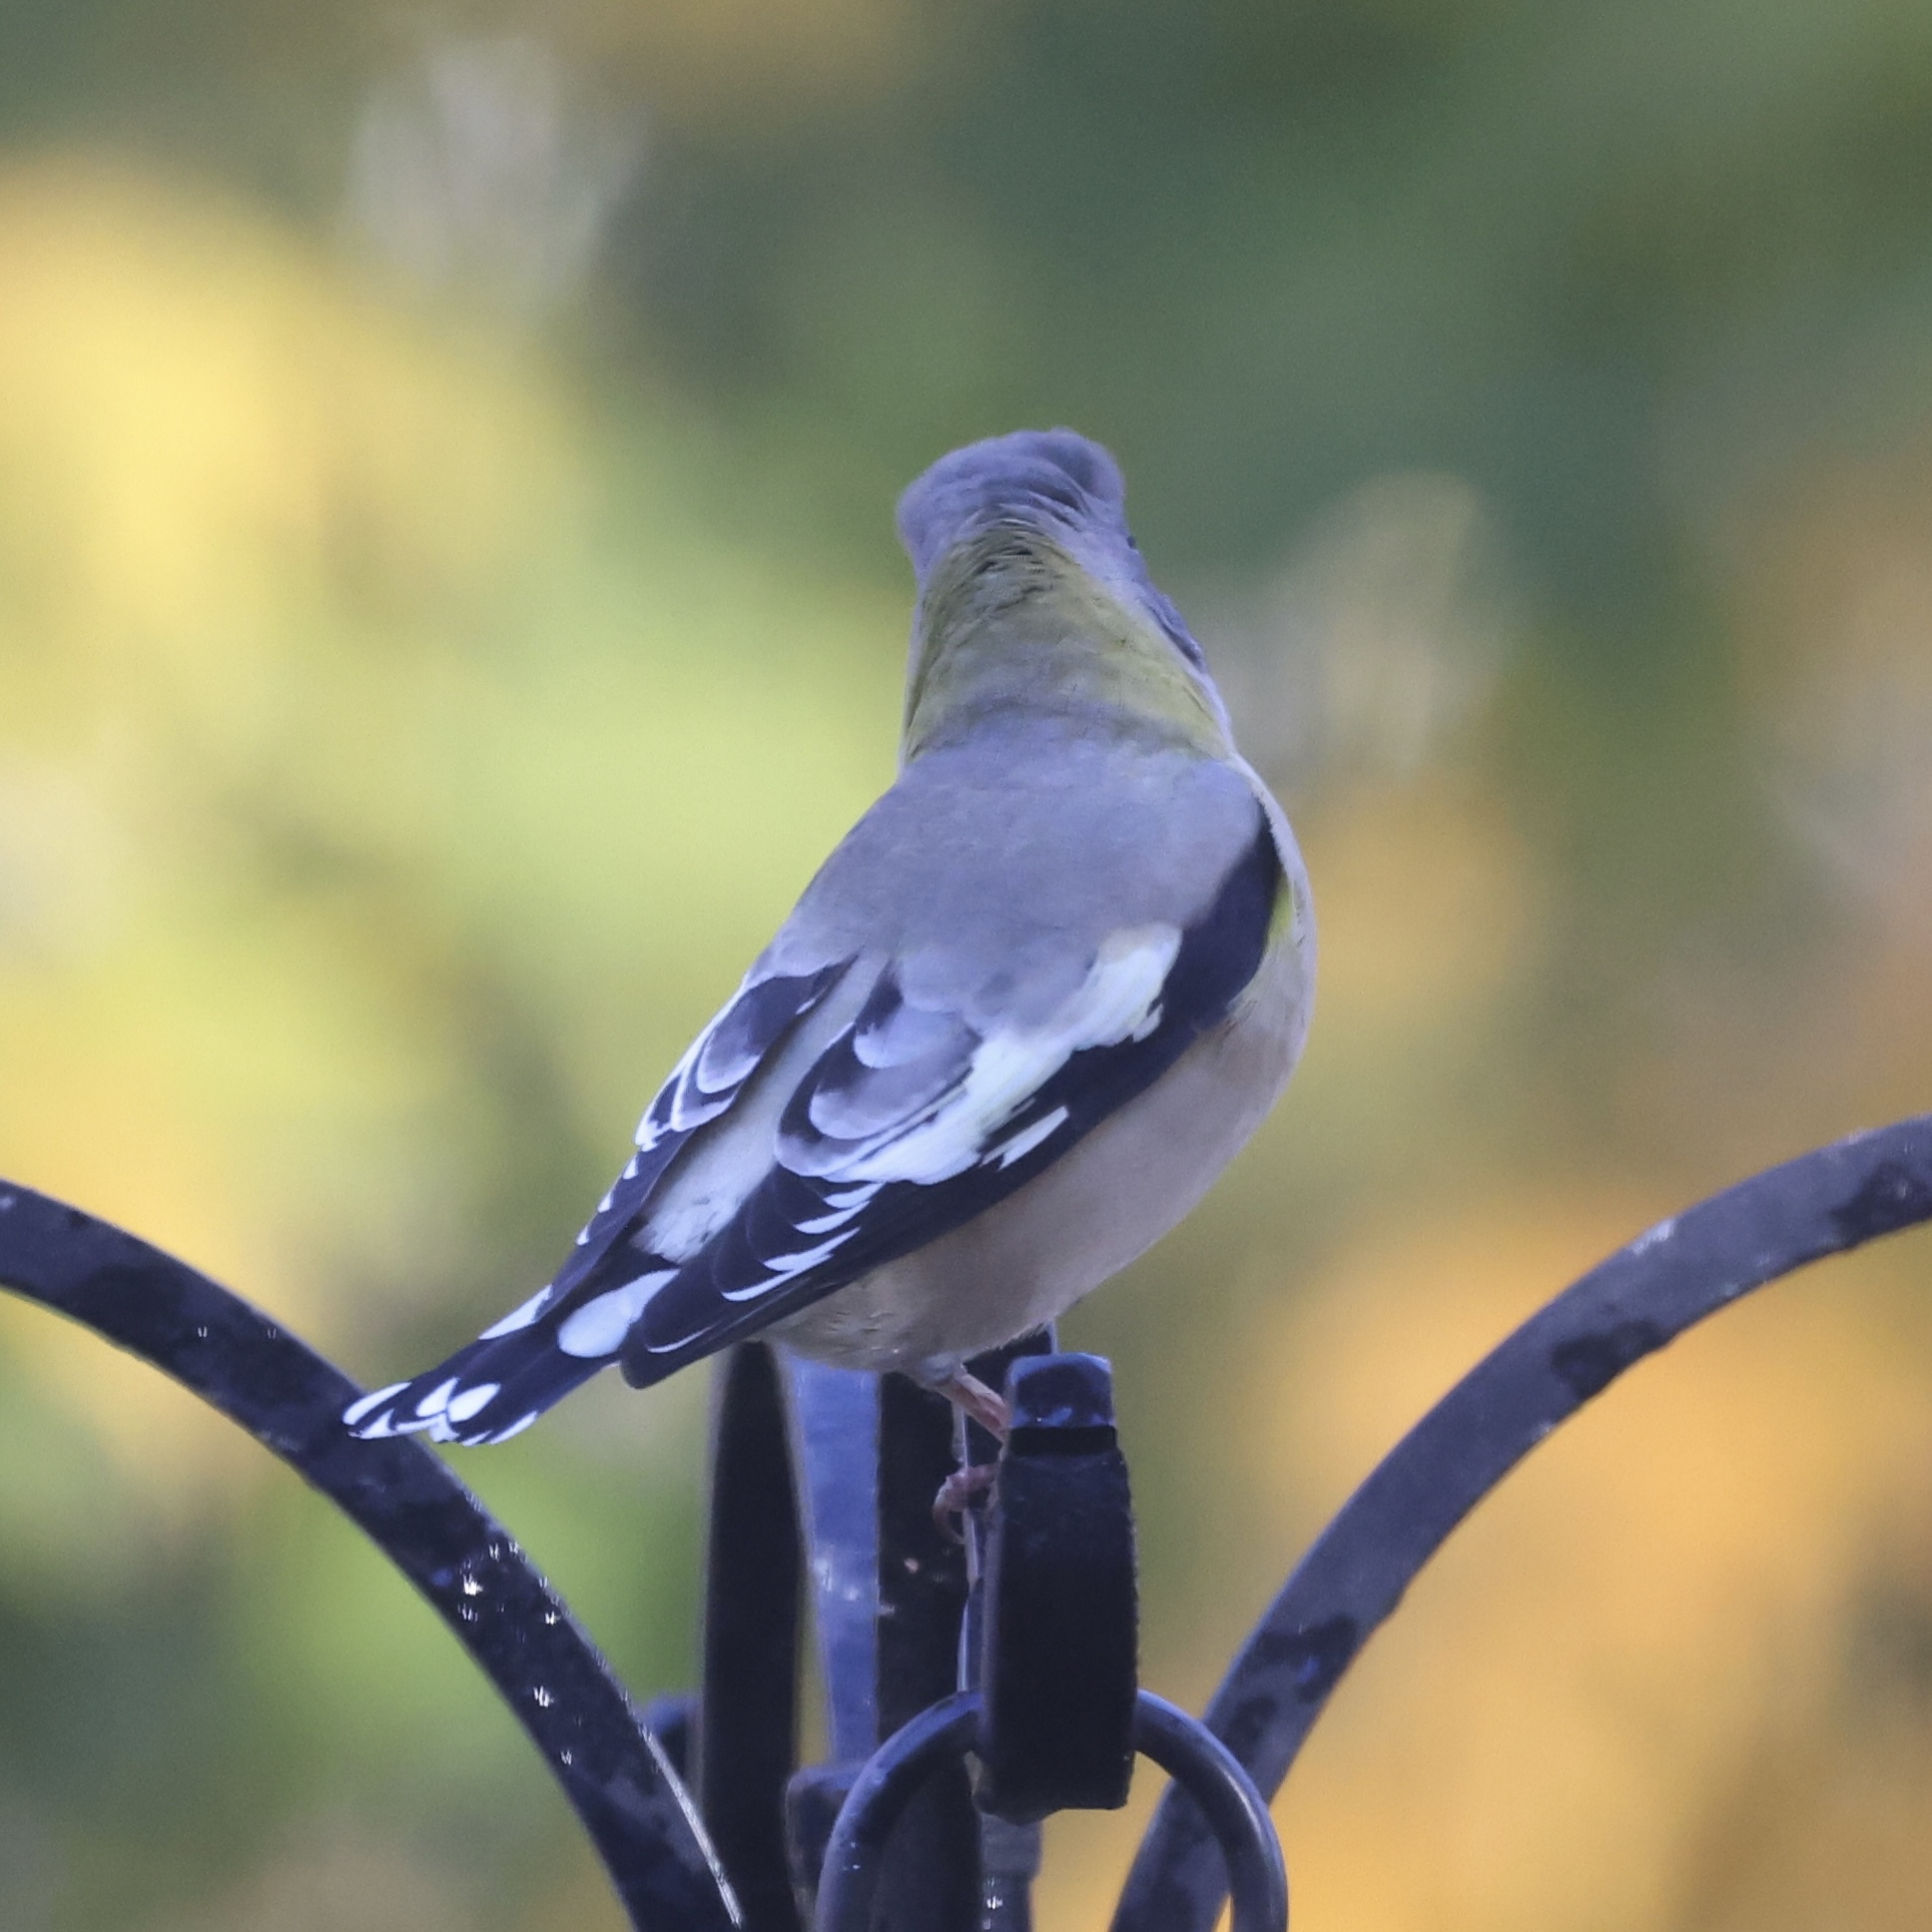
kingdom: Animalia
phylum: Chordata
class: Aves
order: Passeriformes
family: Fringillidae
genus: Hesperiphona
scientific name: Hesperiphona vespertina
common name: Evening grosbeak
